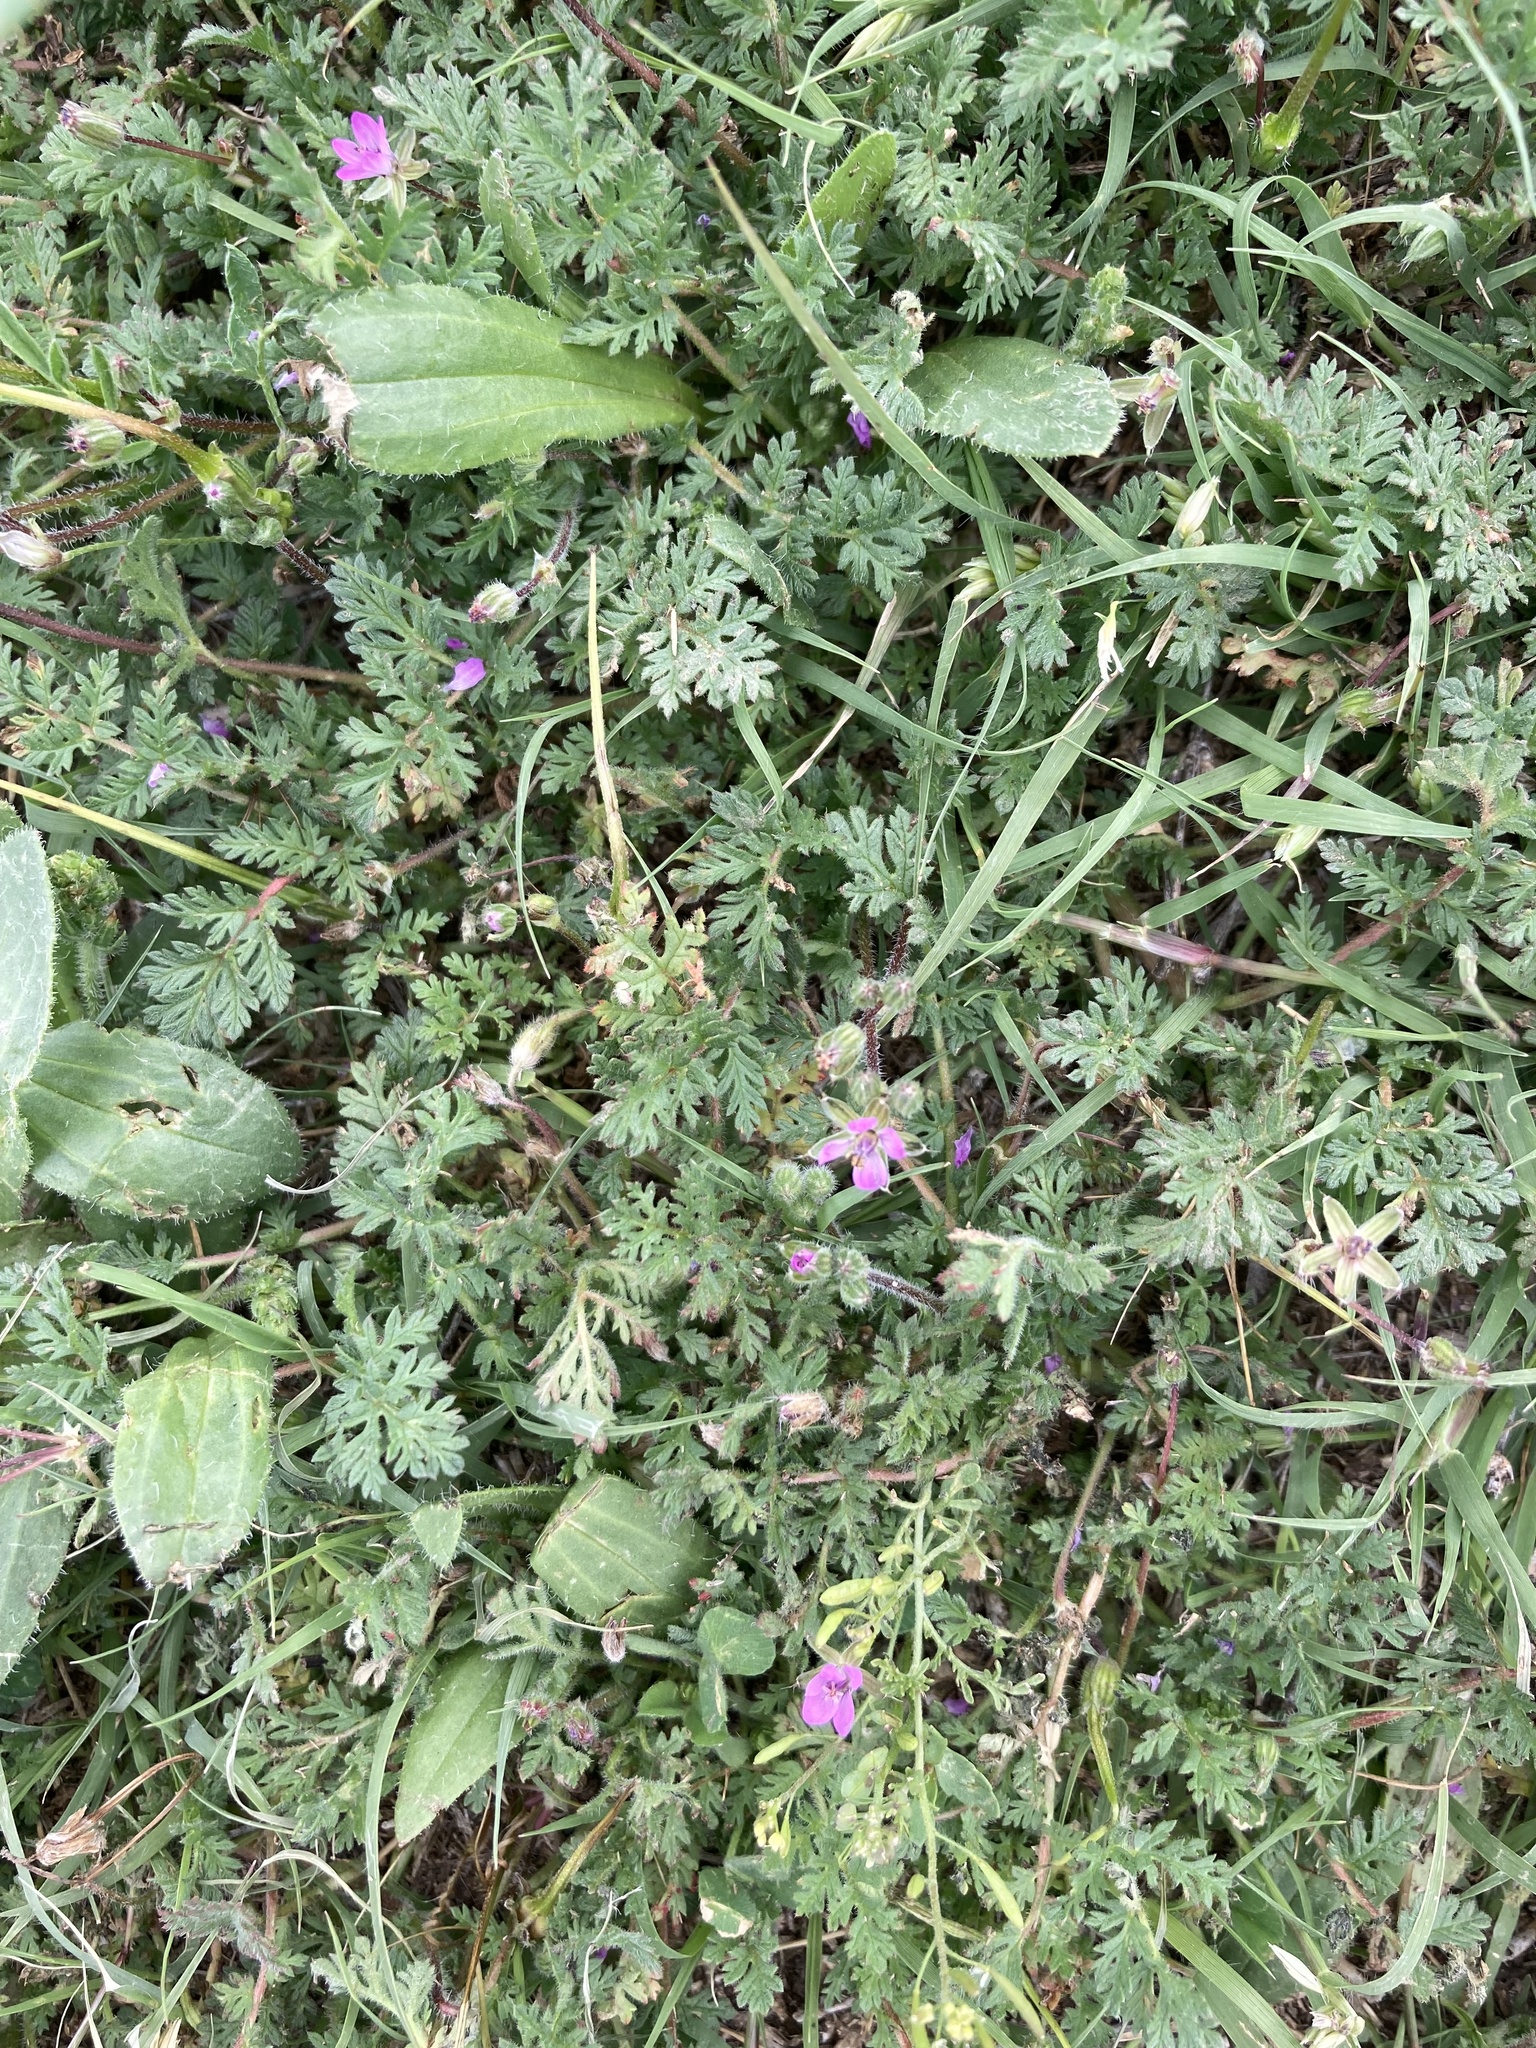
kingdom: Plantae
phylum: Tracheophyta
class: Magnoliopsida
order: Geraniales
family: Geraniaceae
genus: Erodium
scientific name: Erodium cicutarium
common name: Common stork's-bill
